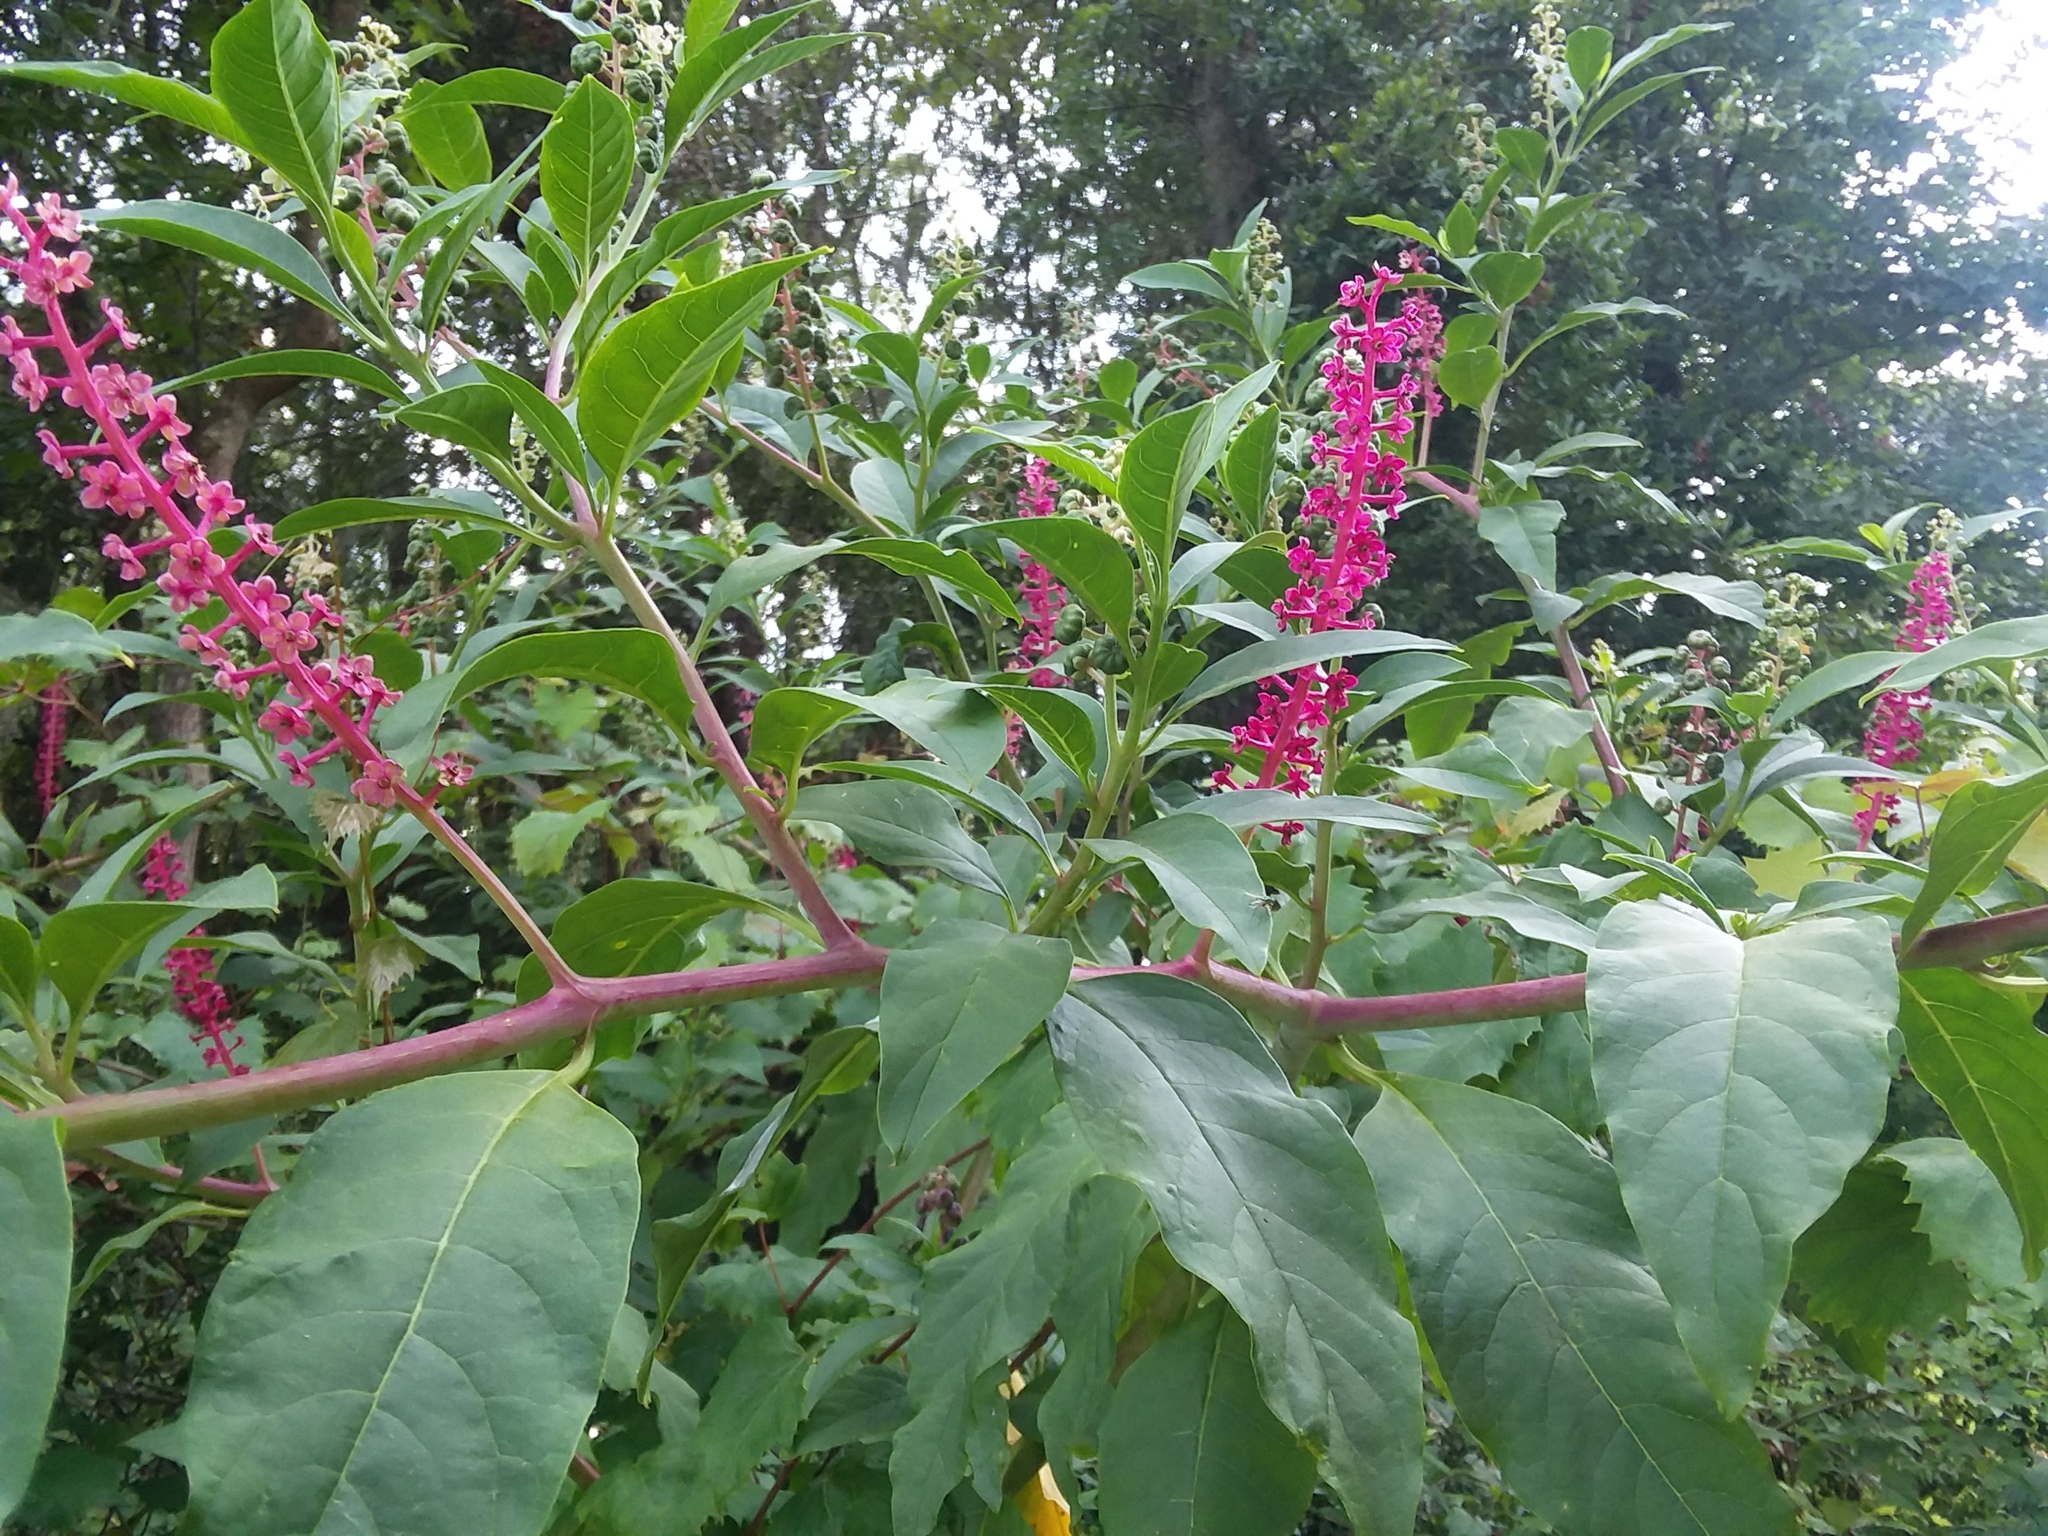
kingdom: Plantae
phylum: Tracheophyta
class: Magnoliopsida
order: Caryophyllales
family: Phytolaccaceae
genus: Phytolacca
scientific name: Phytolacca americana
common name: American pokeweed
